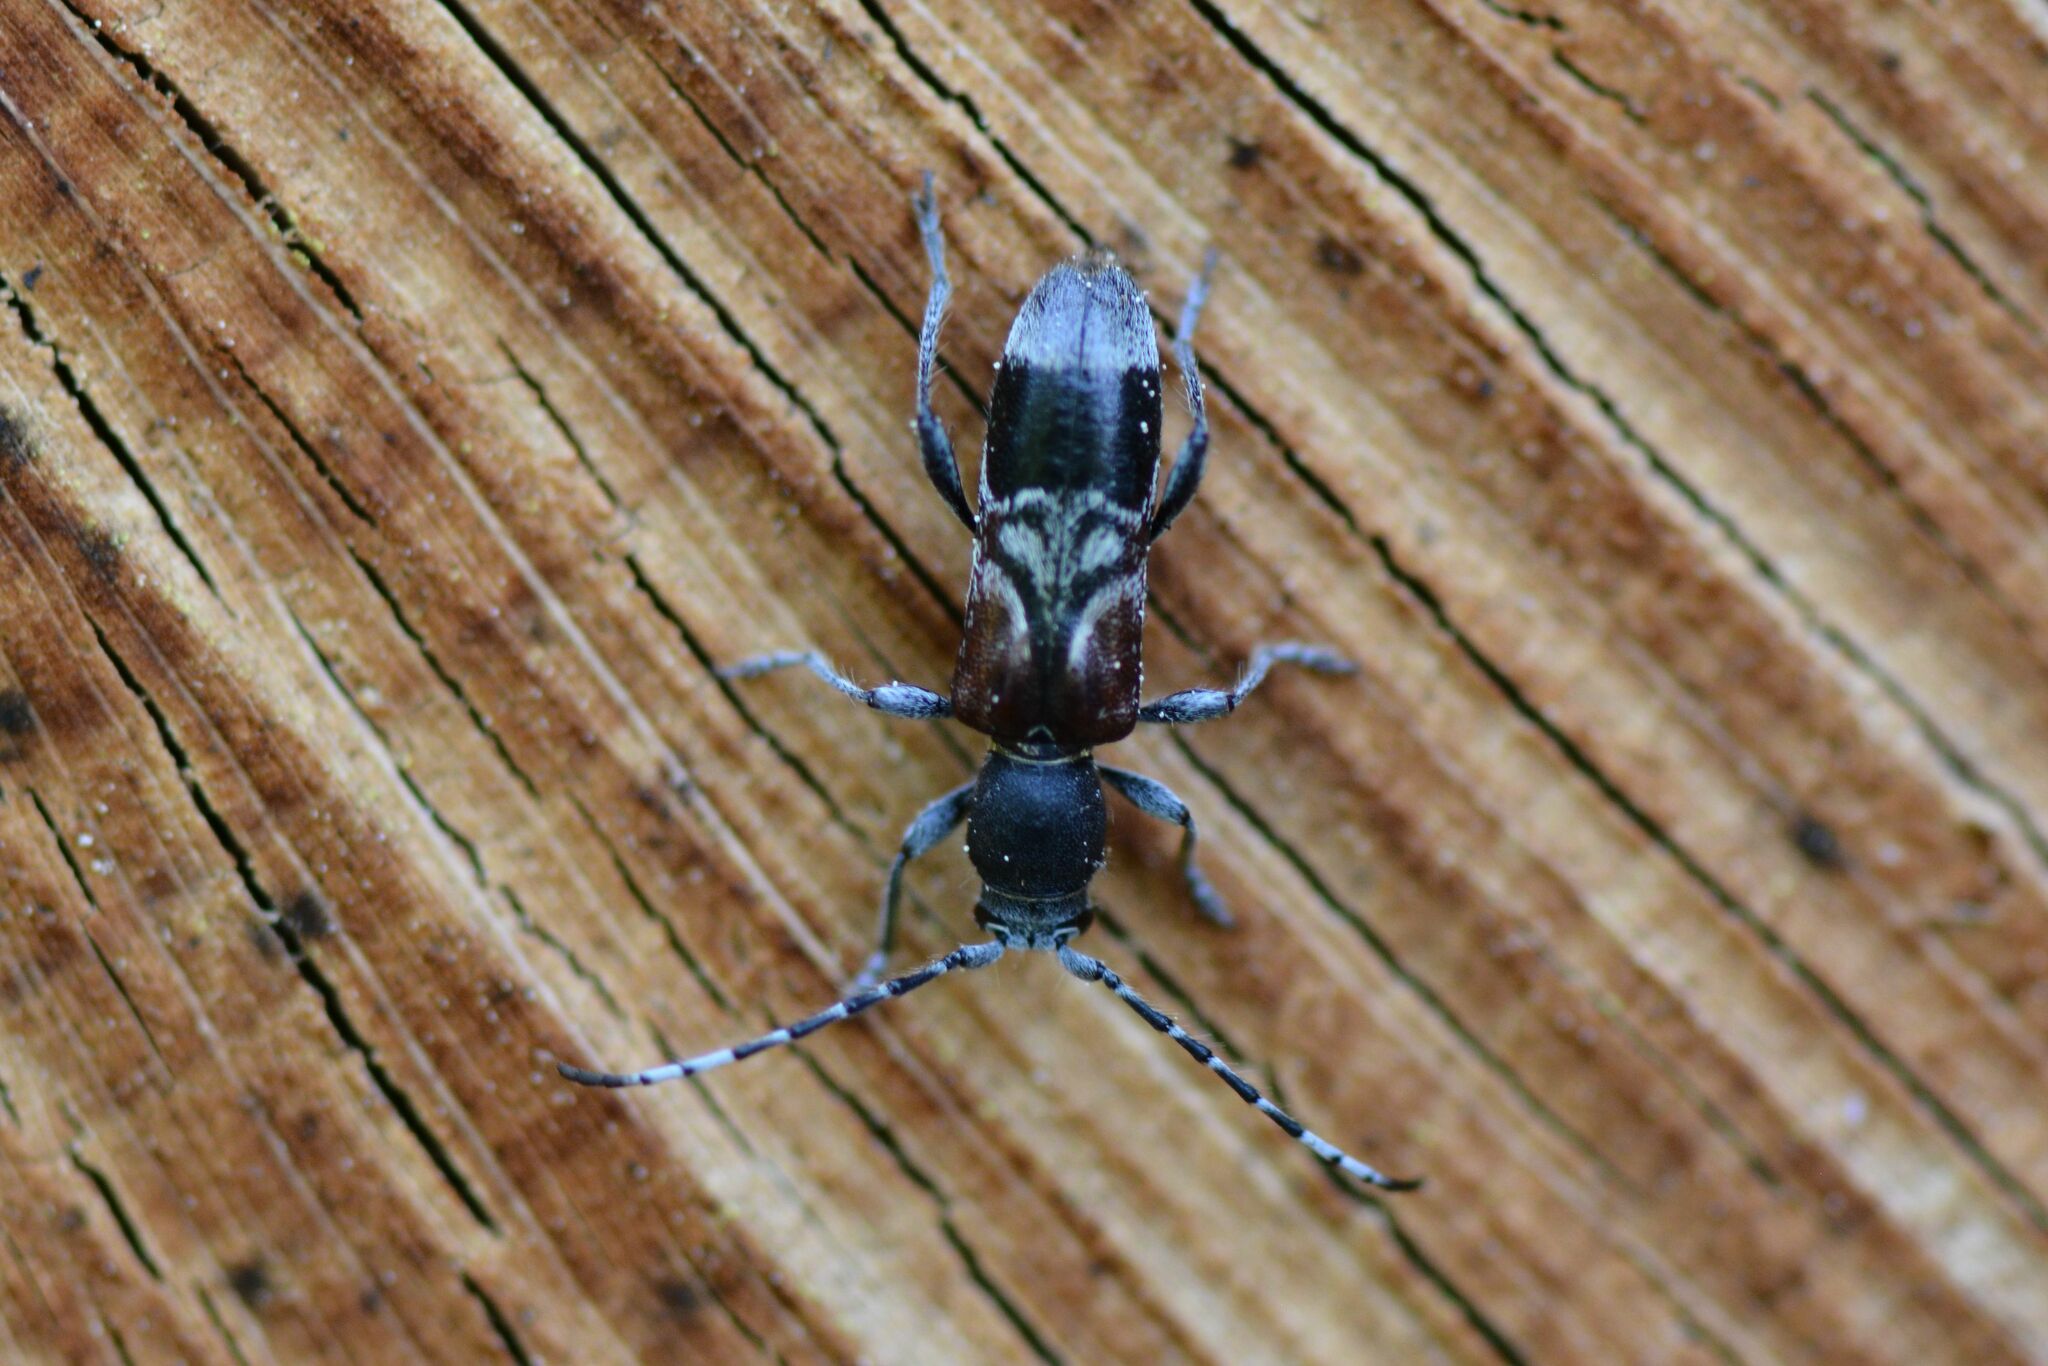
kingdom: Animalia
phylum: Arthropoda
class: Insecta
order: Coleoptera
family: Cerambycidae
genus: Anaglyptus
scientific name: Anaglyptus mysticus
